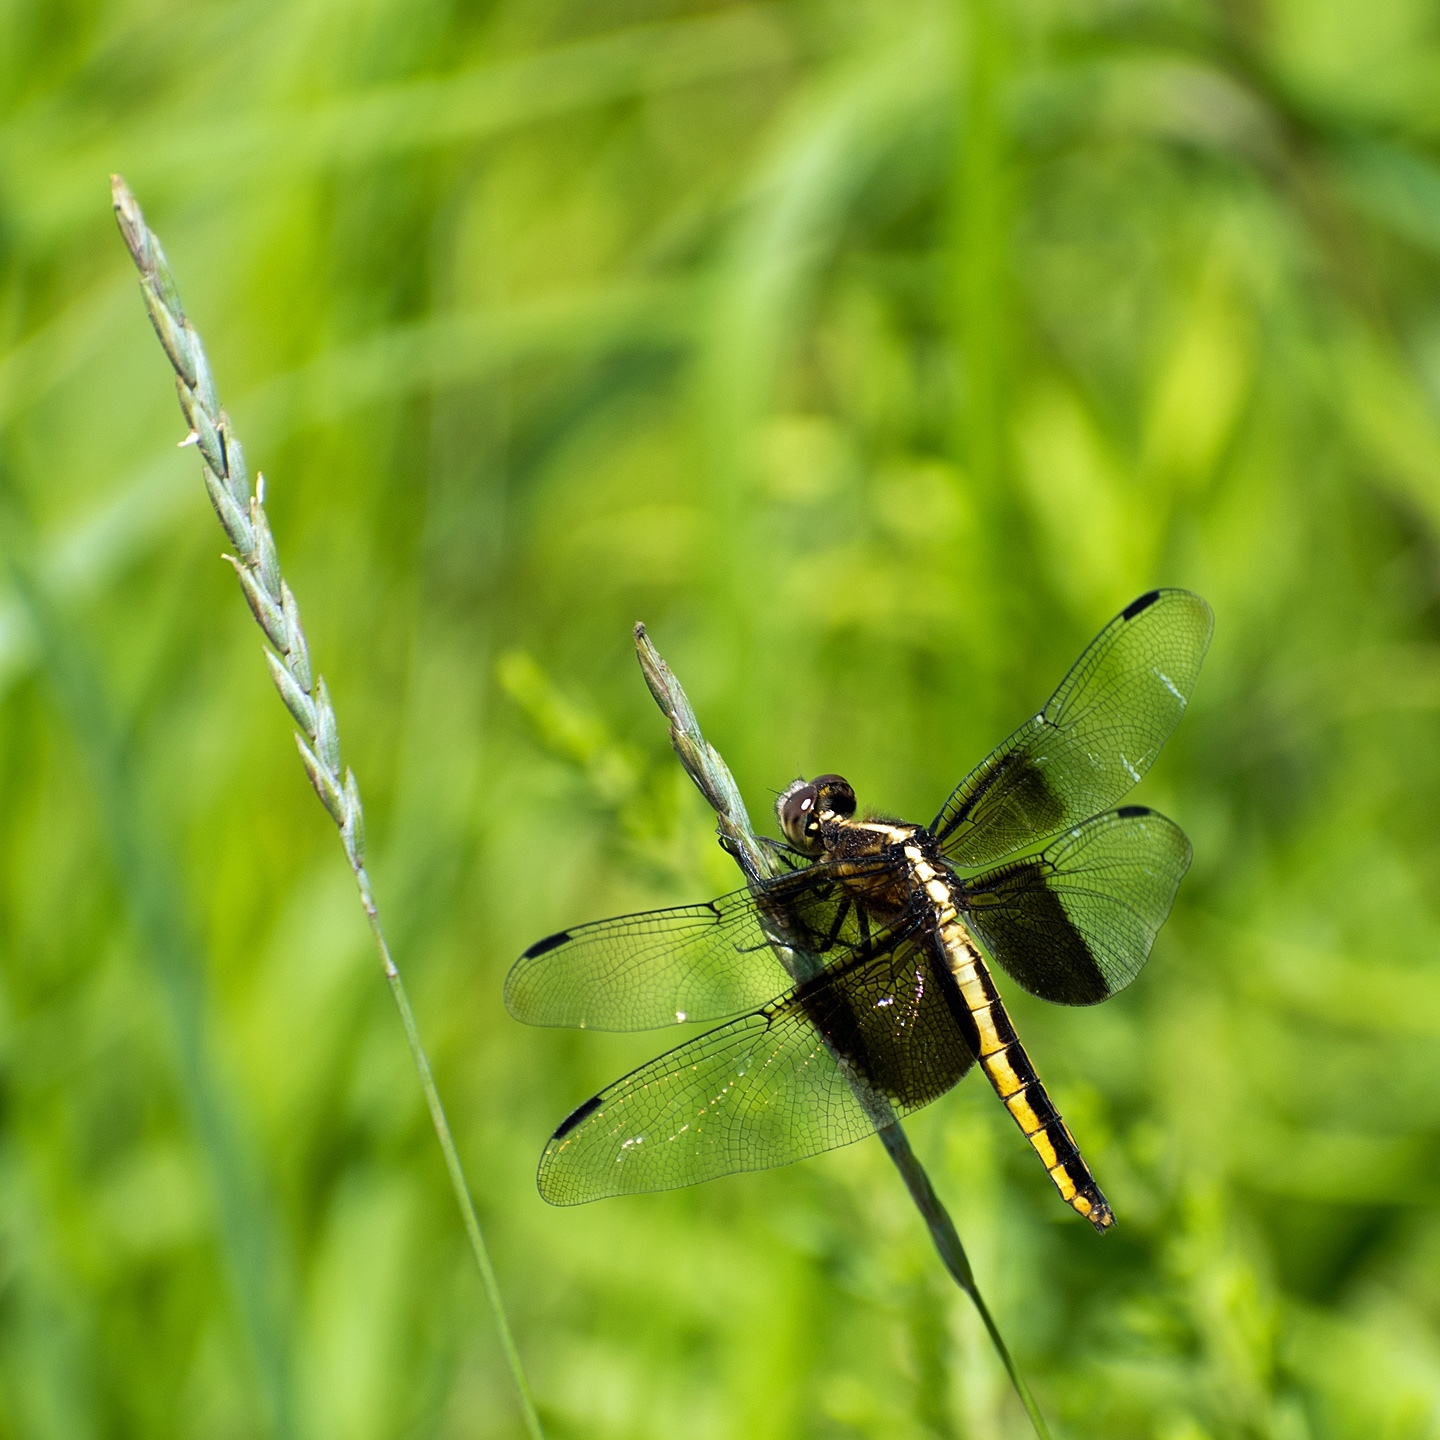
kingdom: Animalia
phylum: Arthropoda
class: Insecta
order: Odonata
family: Libellulidae
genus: Libellula
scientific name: Libellula luctuosa
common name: Widow skimmer
